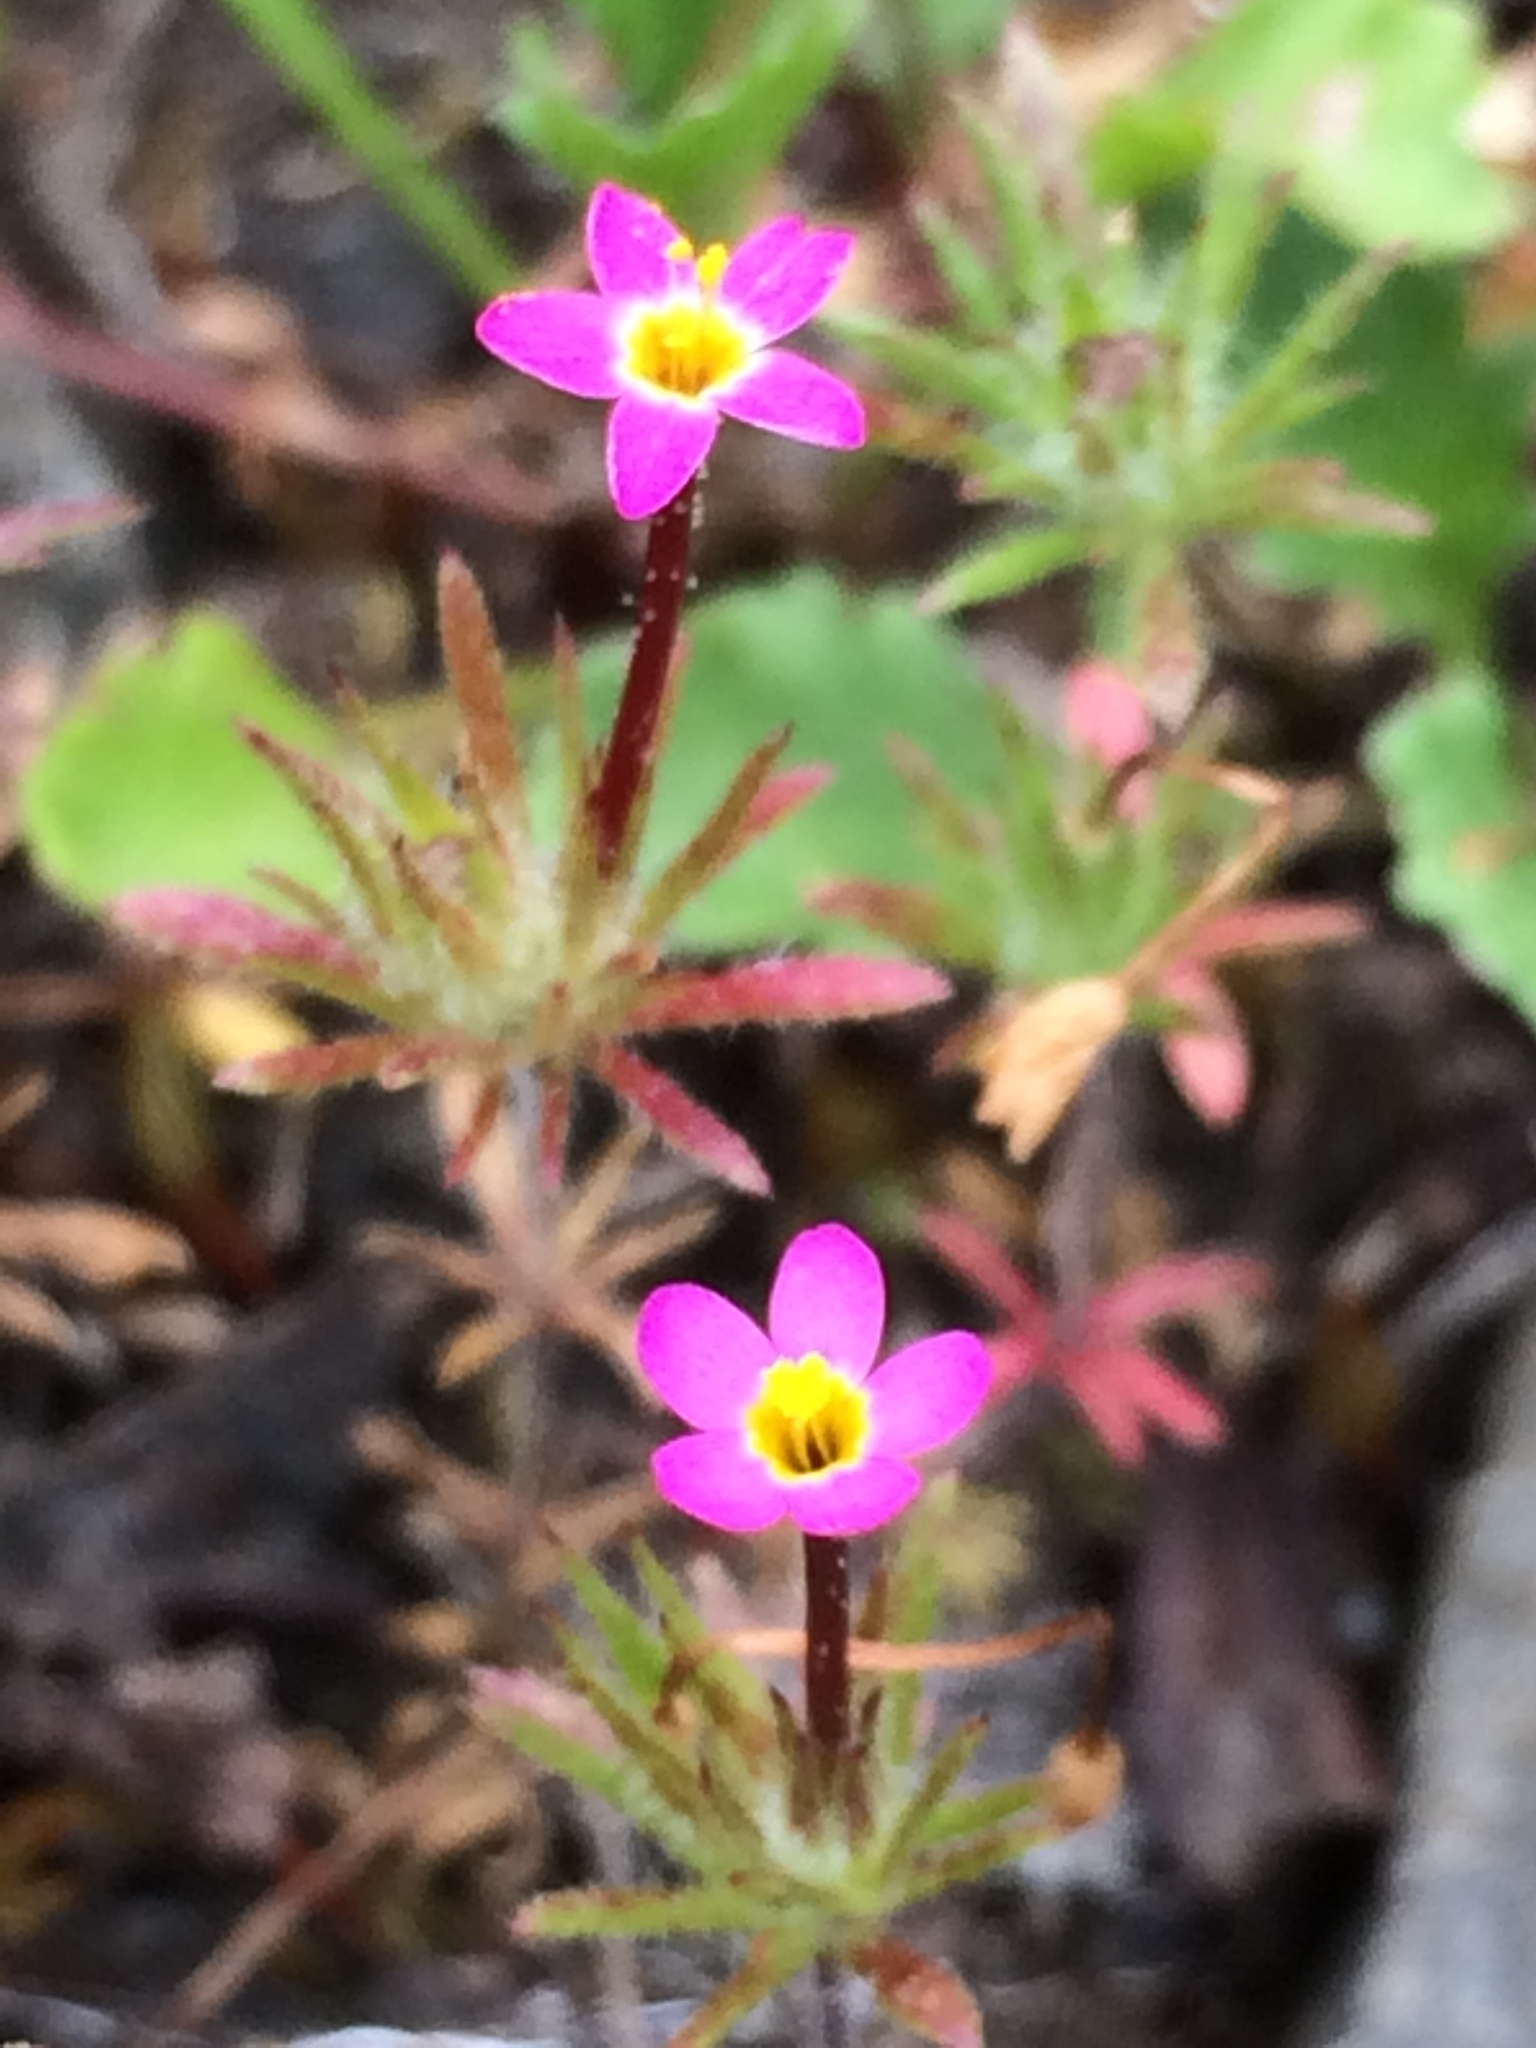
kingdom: Plantae
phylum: Tracheophyta
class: Magnoliopsida
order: Ericales
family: Polemoniaceae
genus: Leptosiphon
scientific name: Leptosiphon bicolor
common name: True babystars
